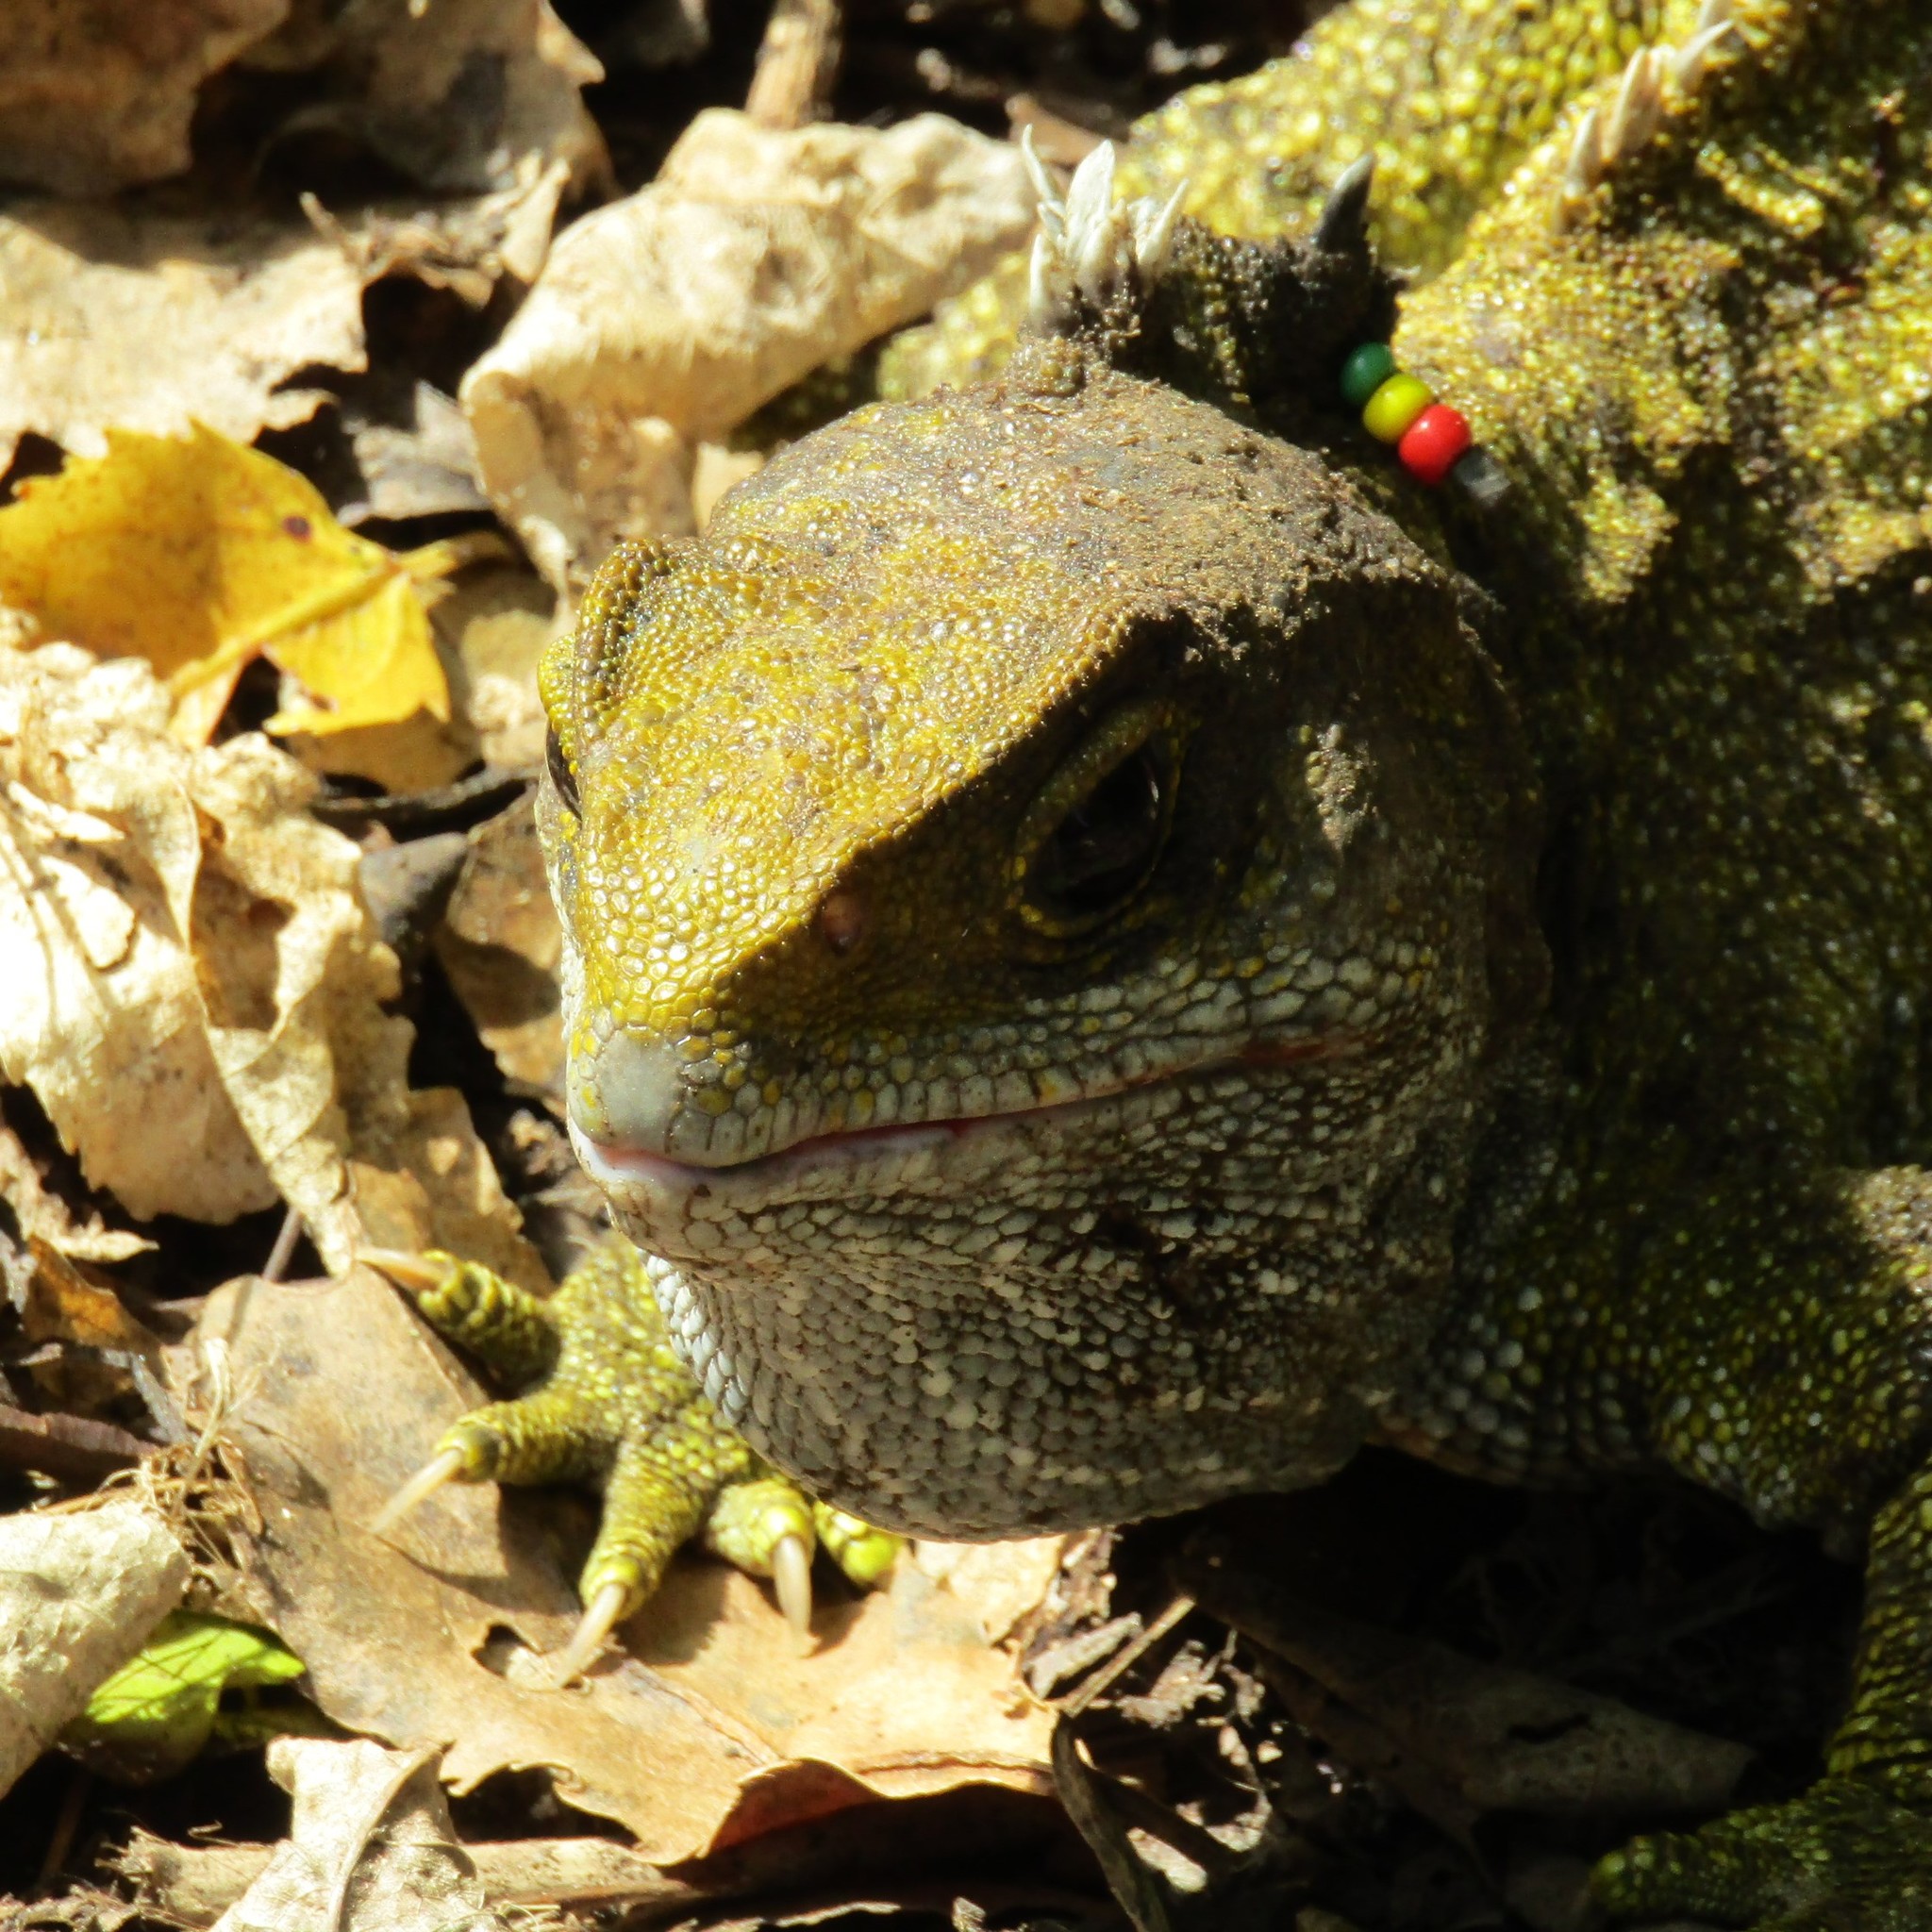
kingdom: Animalia
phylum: Chordata
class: Sphenodontia
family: Sphenodontidae
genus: Sphenodon
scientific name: Sphenodon punctatus
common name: Tuatara
